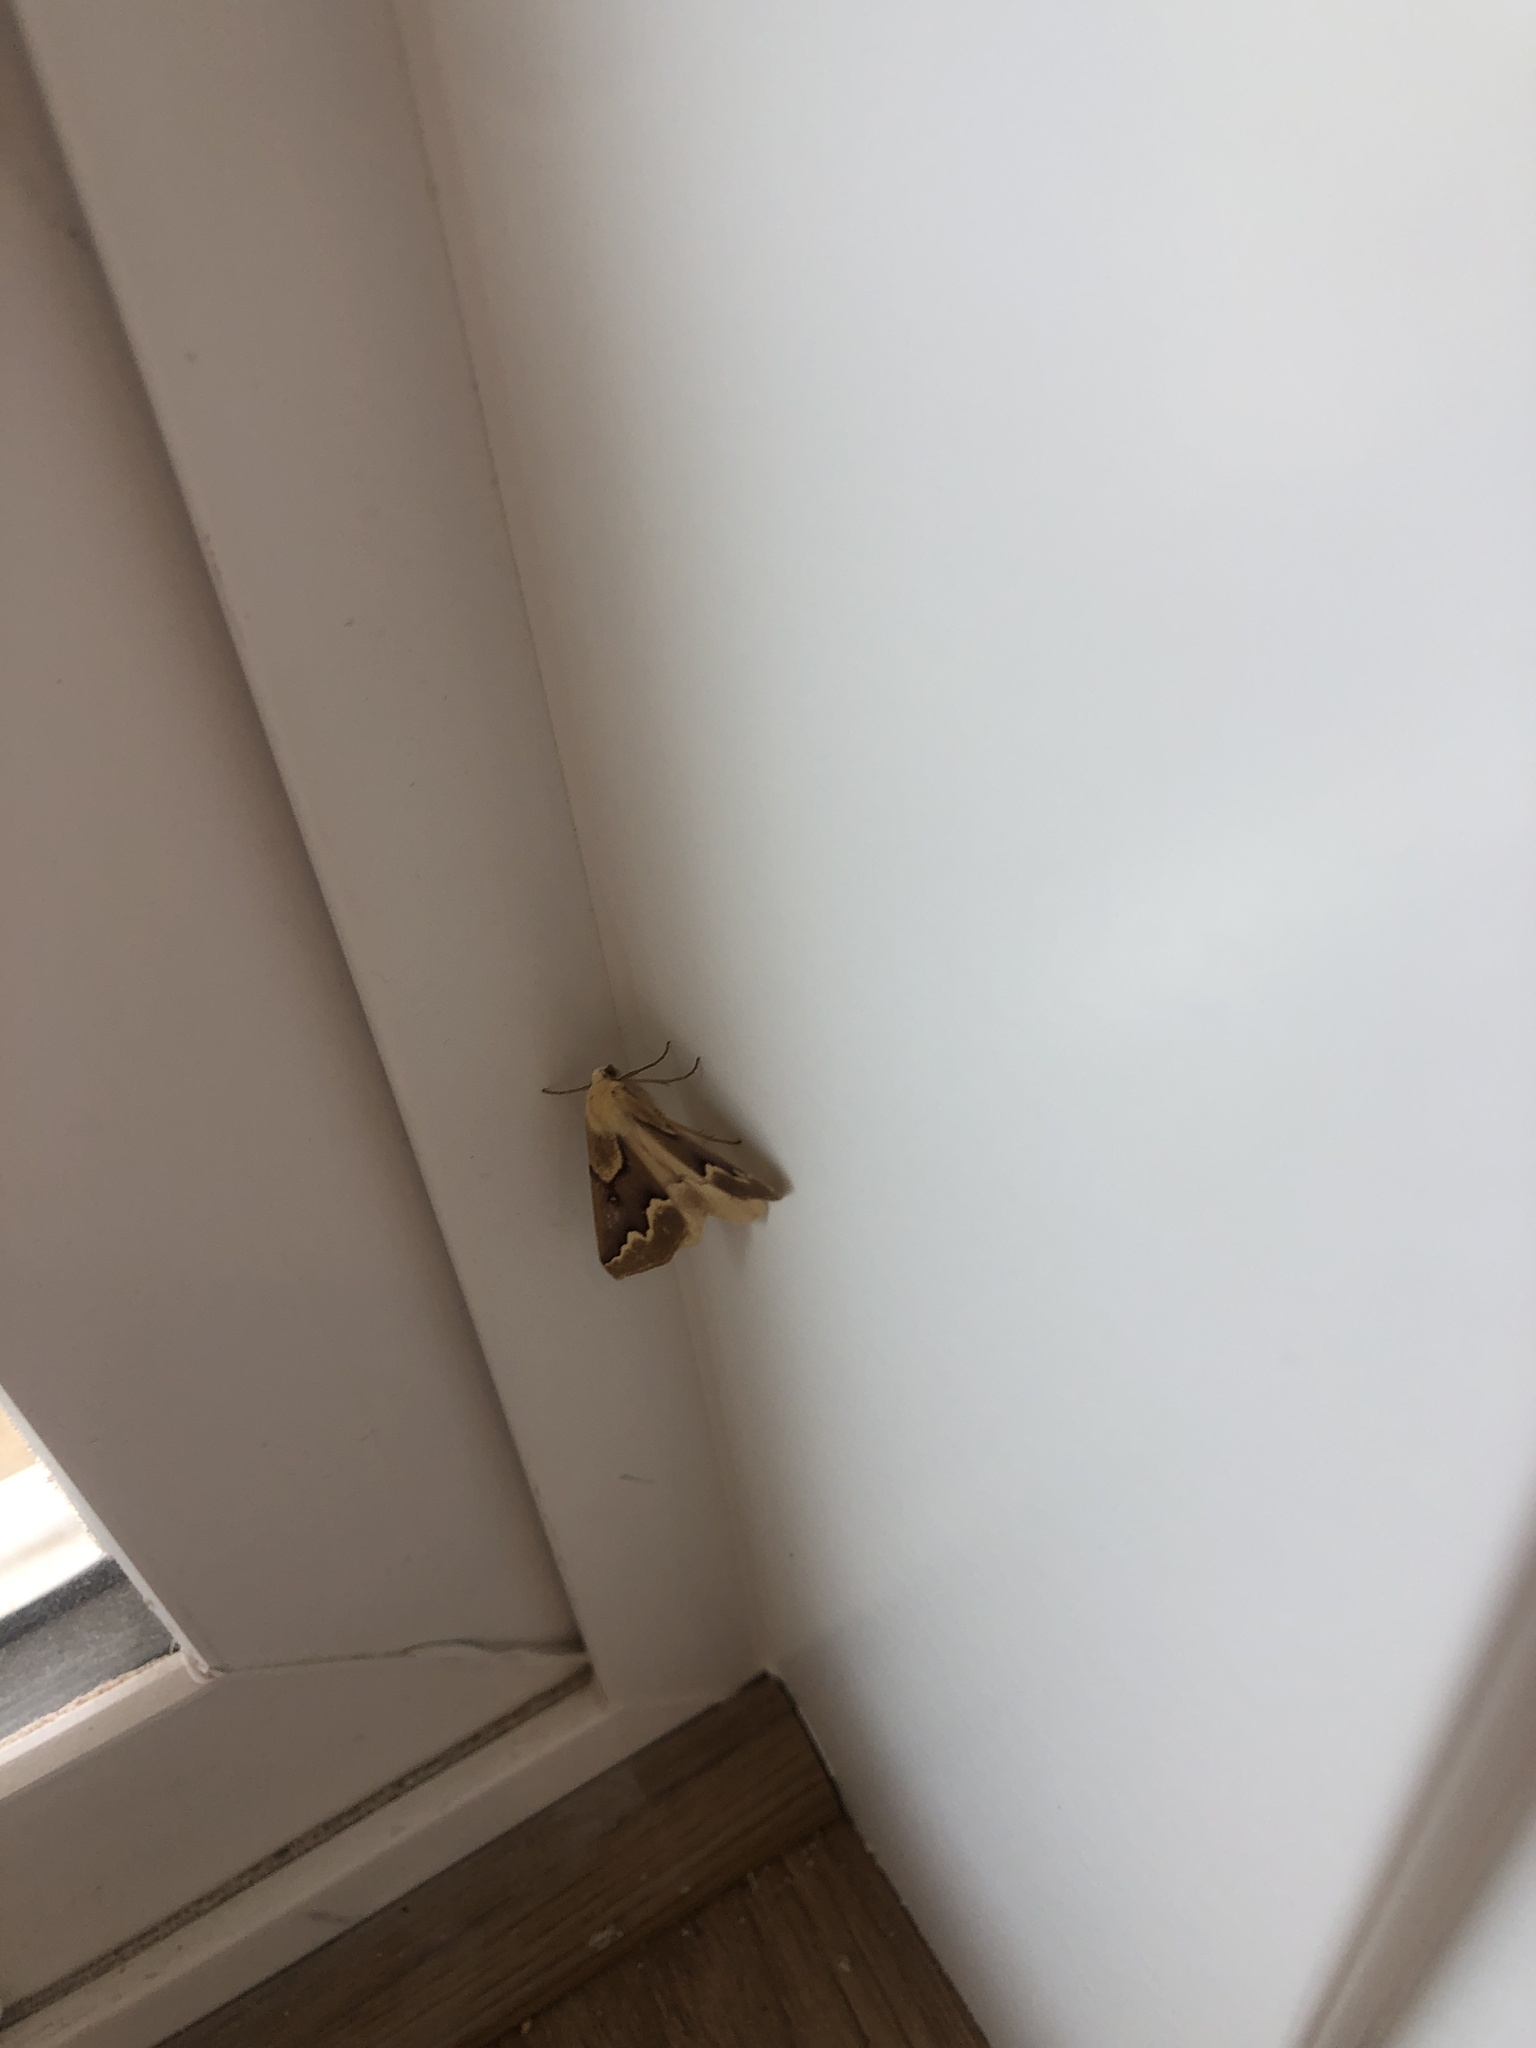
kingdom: Animalia
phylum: Arthropoda
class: Insecta
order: Lepidoptera
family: Geometridae
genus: Sabulodes
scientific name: Sabulodes edwardsata
